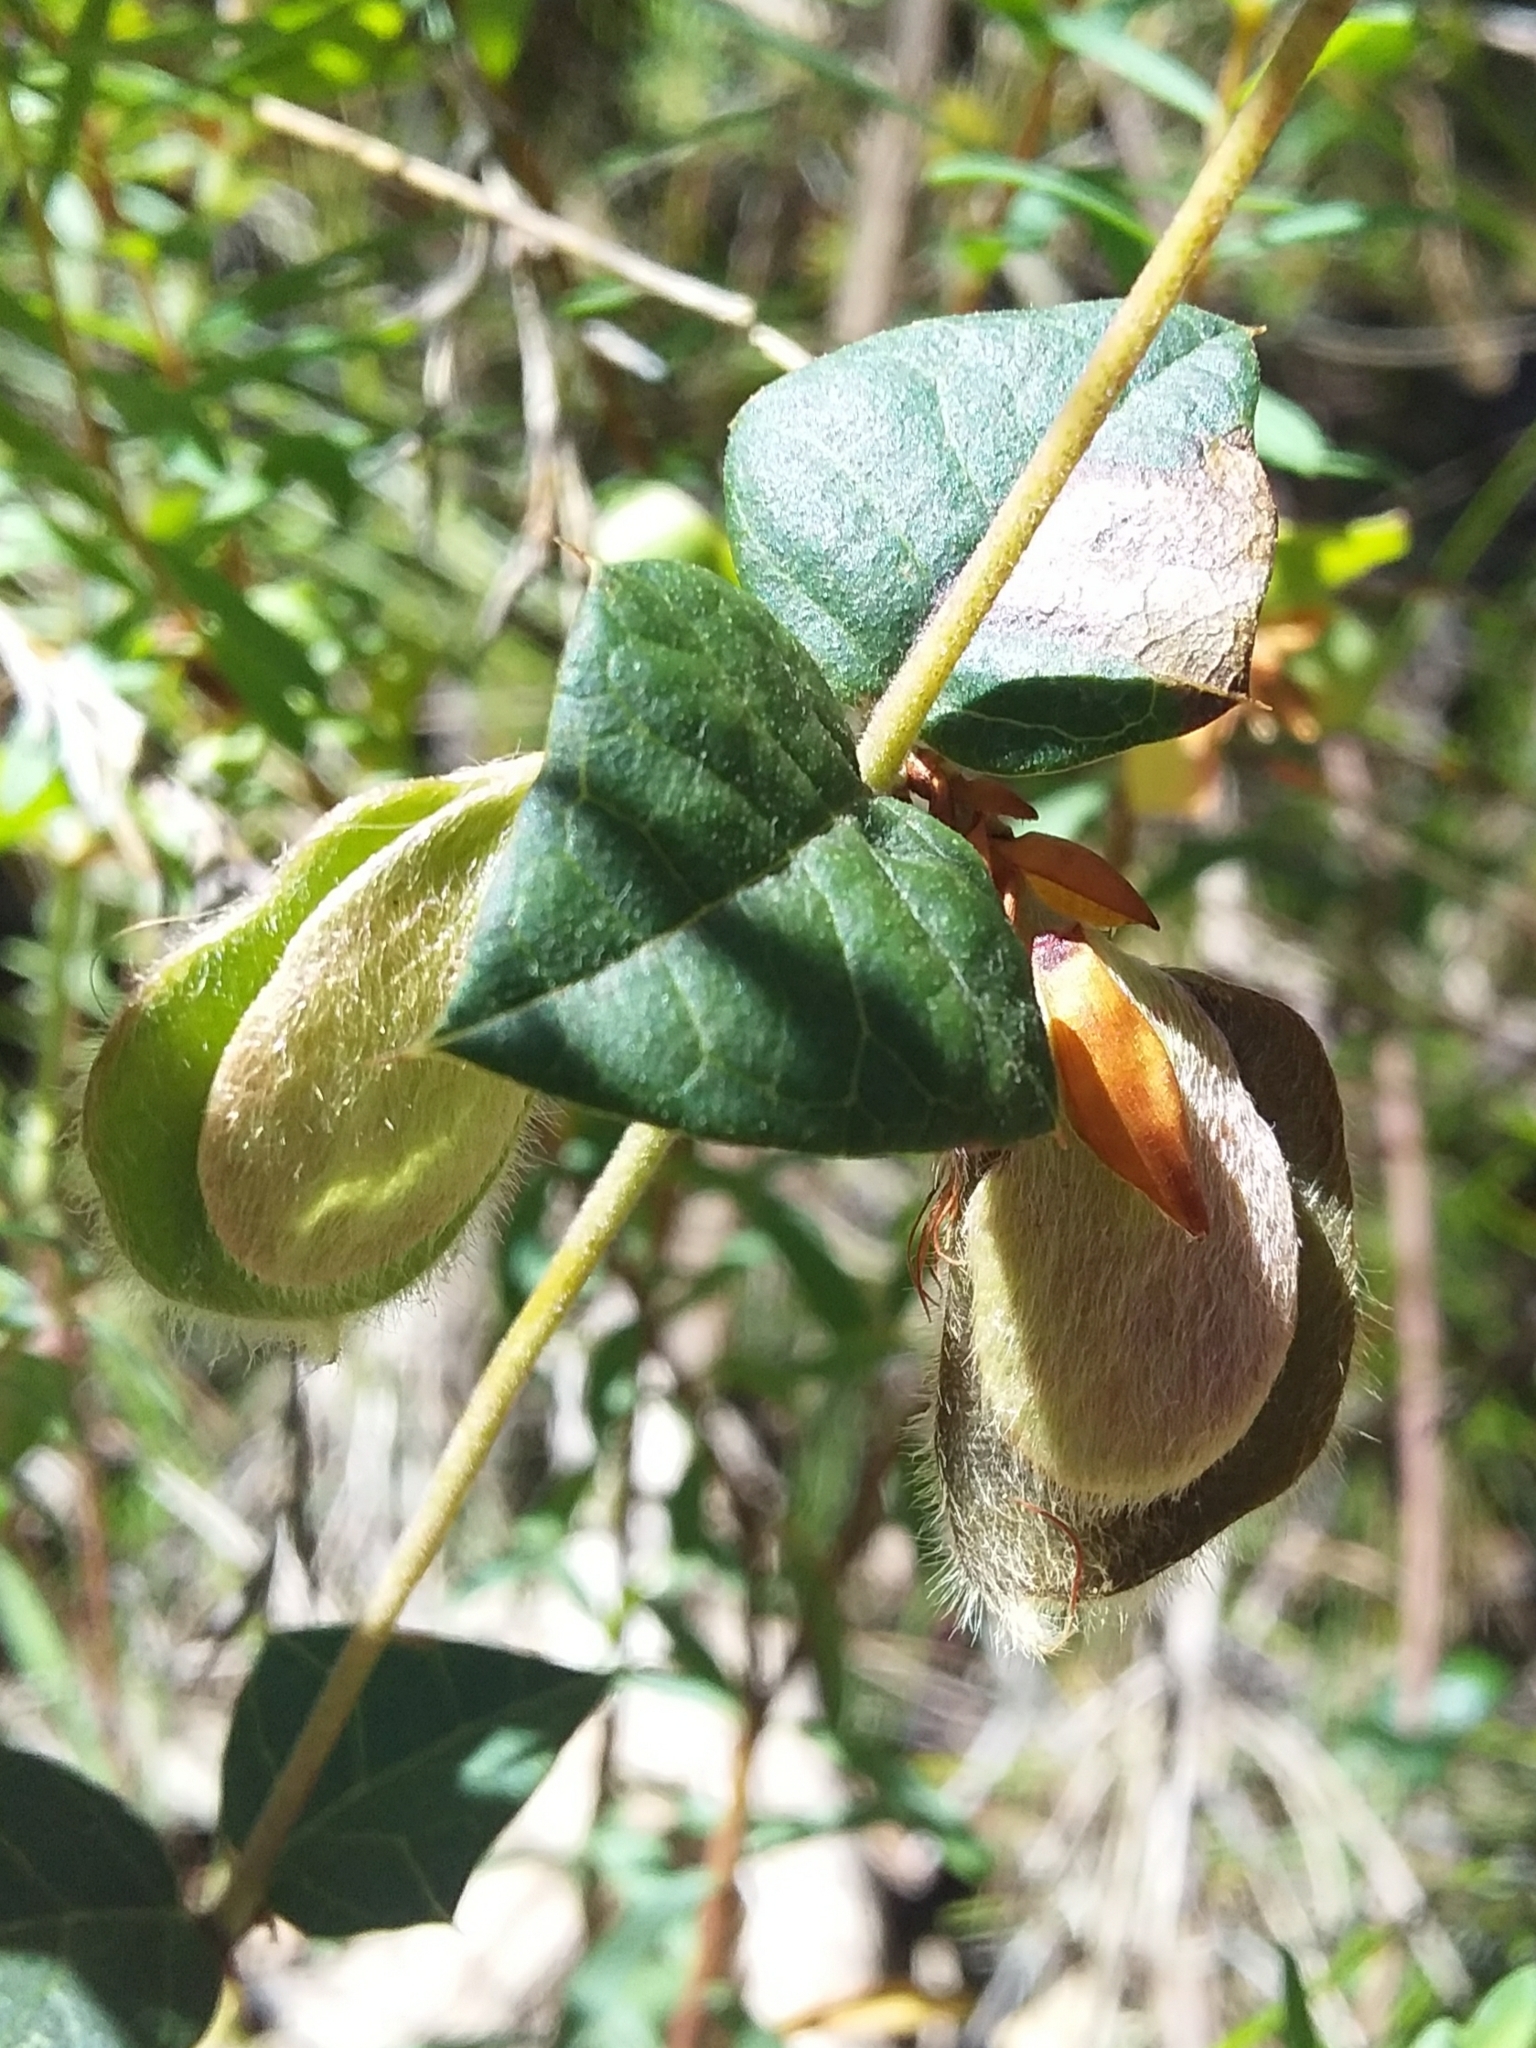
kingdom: Plantae
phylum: Tracheophyta
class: Magnoliopsida
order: Fabales
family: Fabaceae
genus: Platylobium
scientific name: Platylobium obtusangulum
